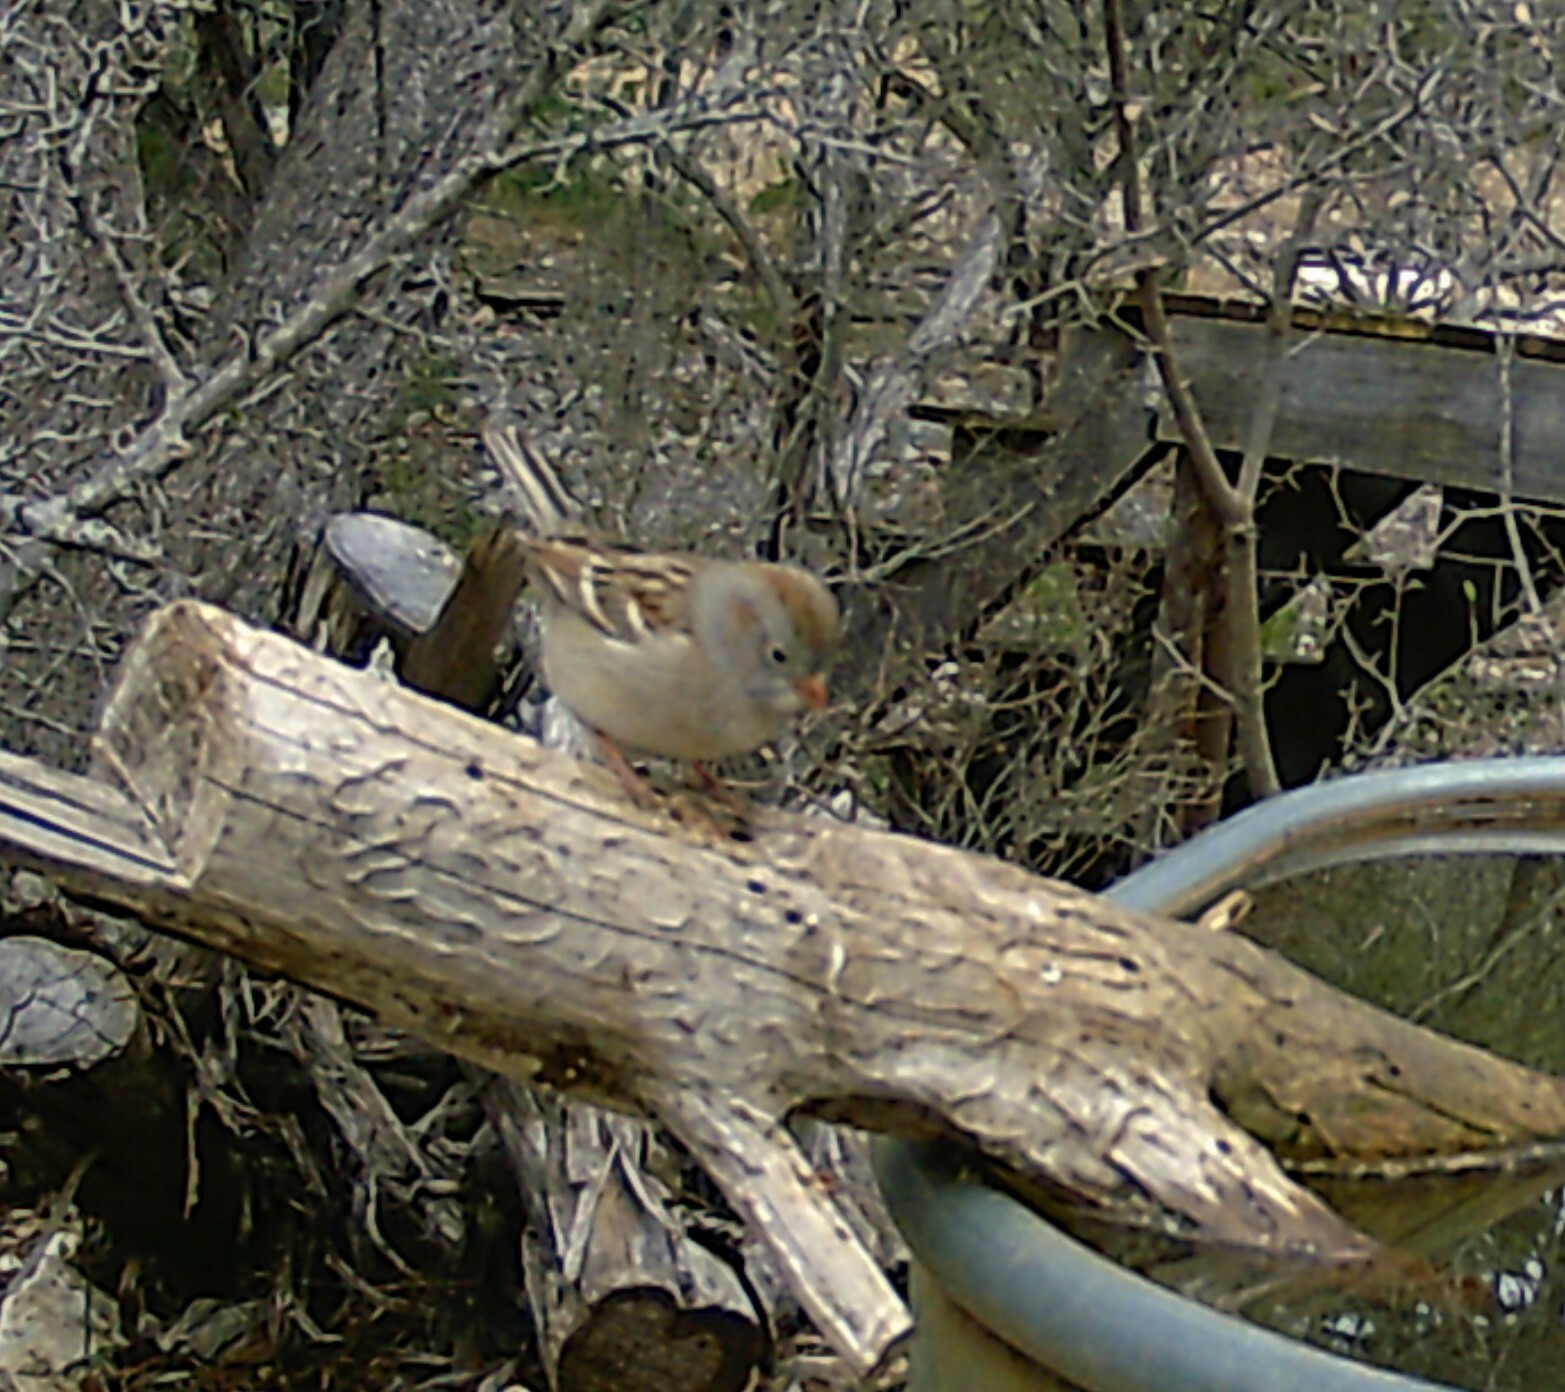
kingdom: Animalia
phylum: Chordata
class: Aves
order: Passeriformes
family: Passerellidae
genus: Spizella
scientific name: Spizella pusilla
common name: Field sparrow
